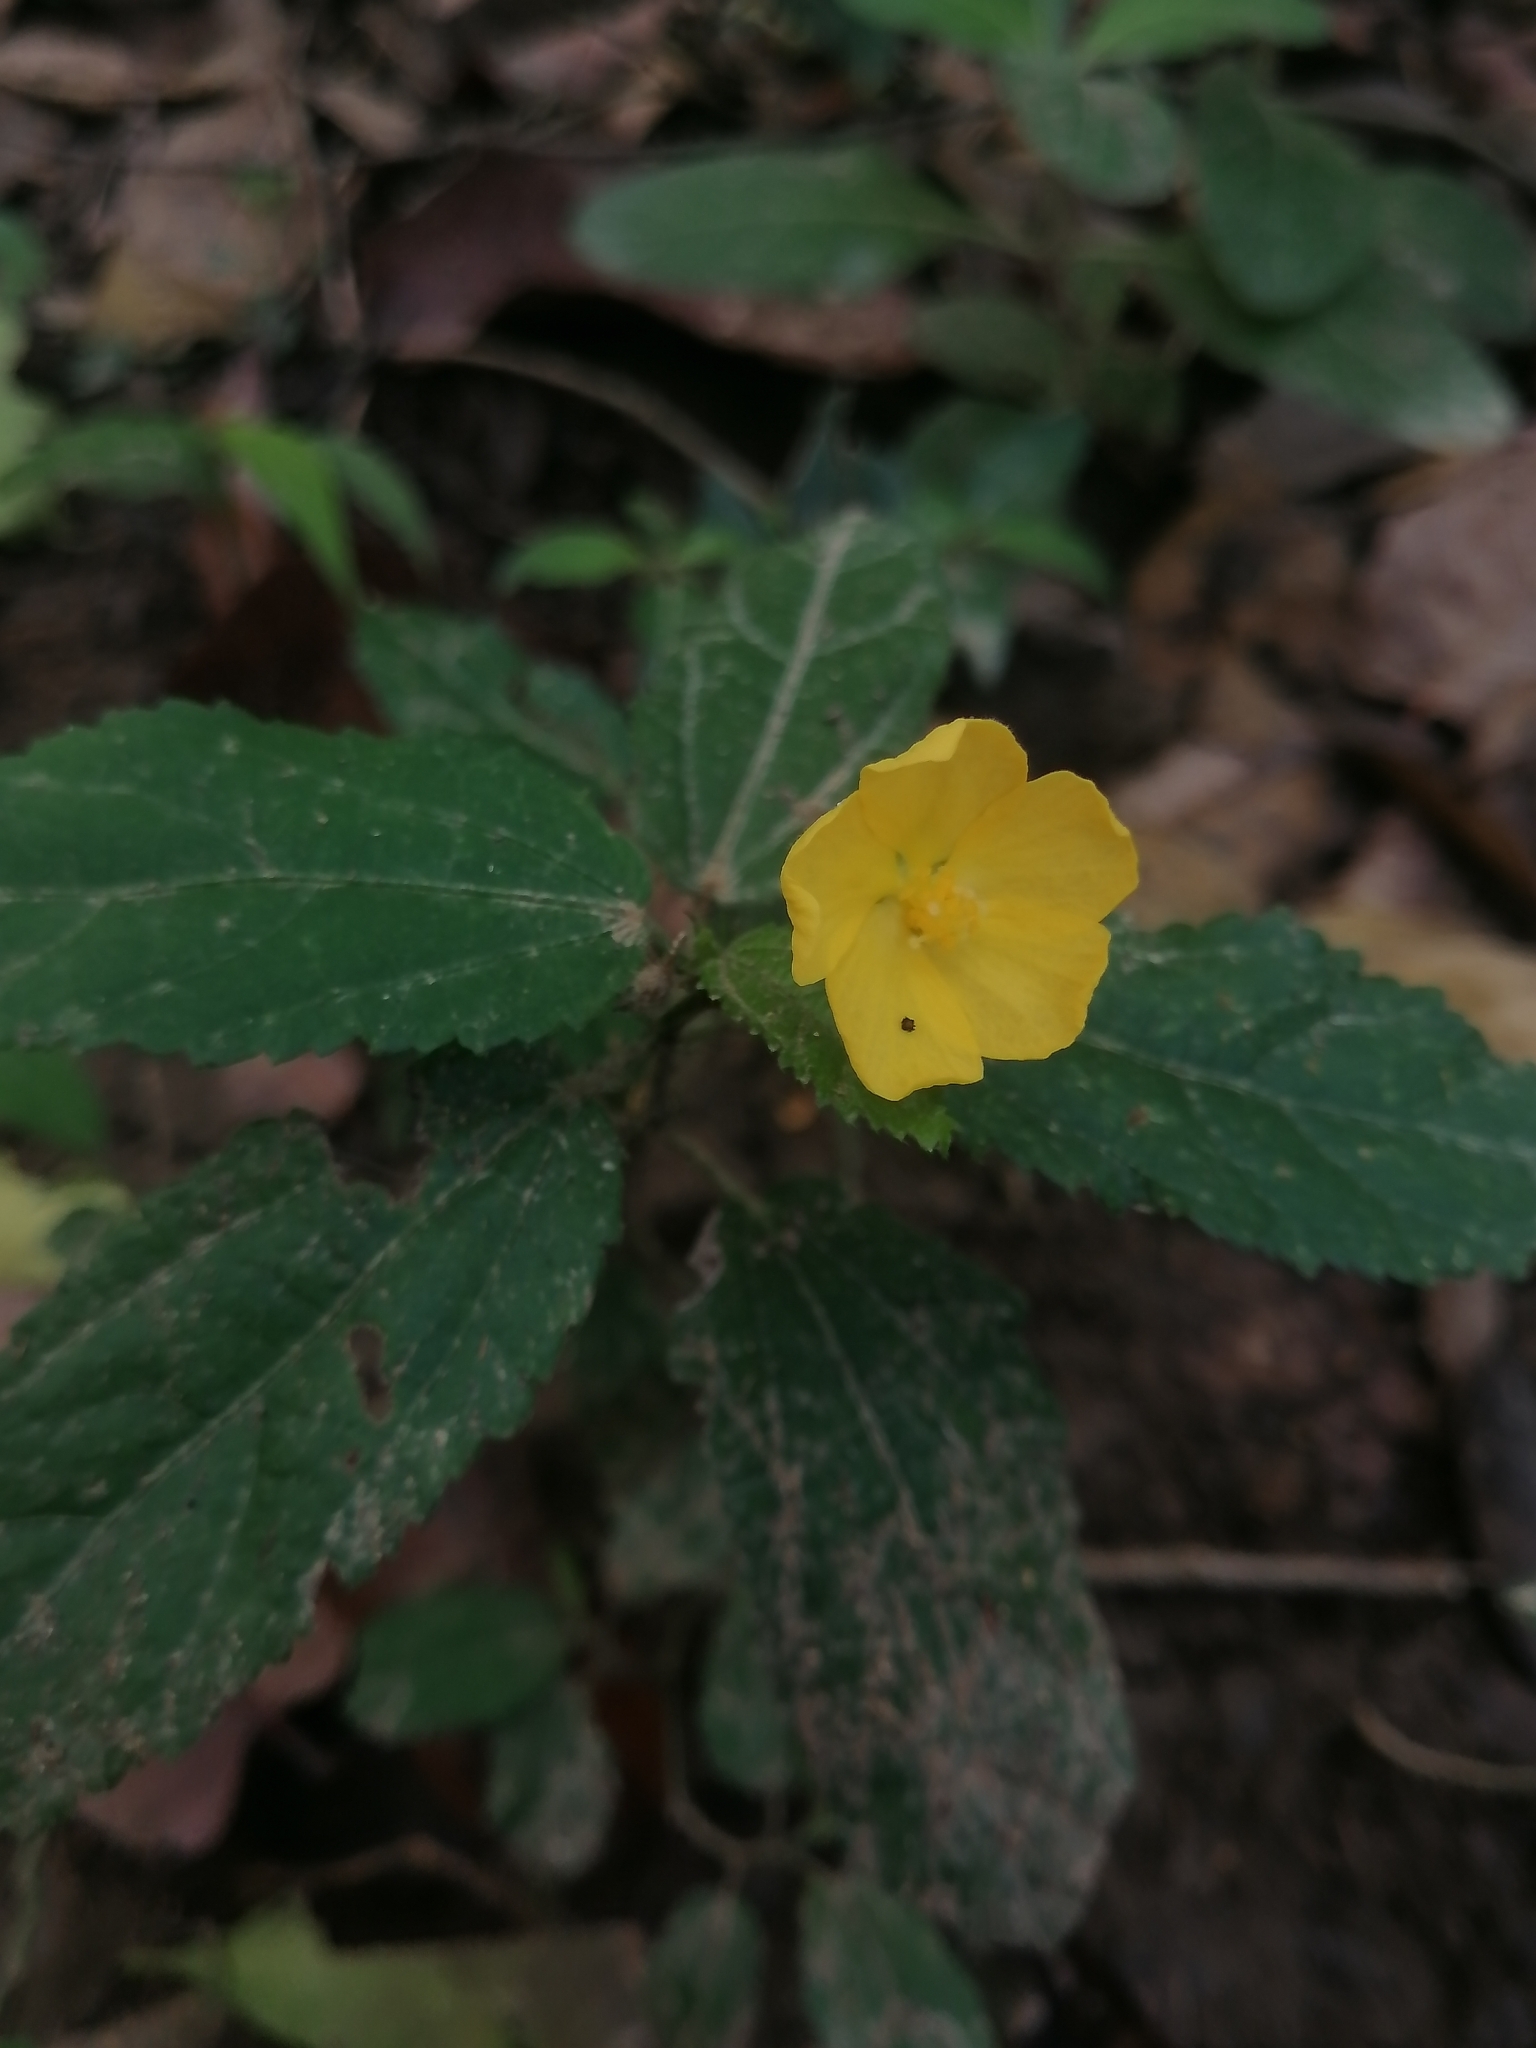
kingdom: Plantae
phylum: Tracheophyta
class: Magnoliopsida
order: Malvales
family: Malvaceae
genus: Pavonia
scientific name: Pavonia uniflora
